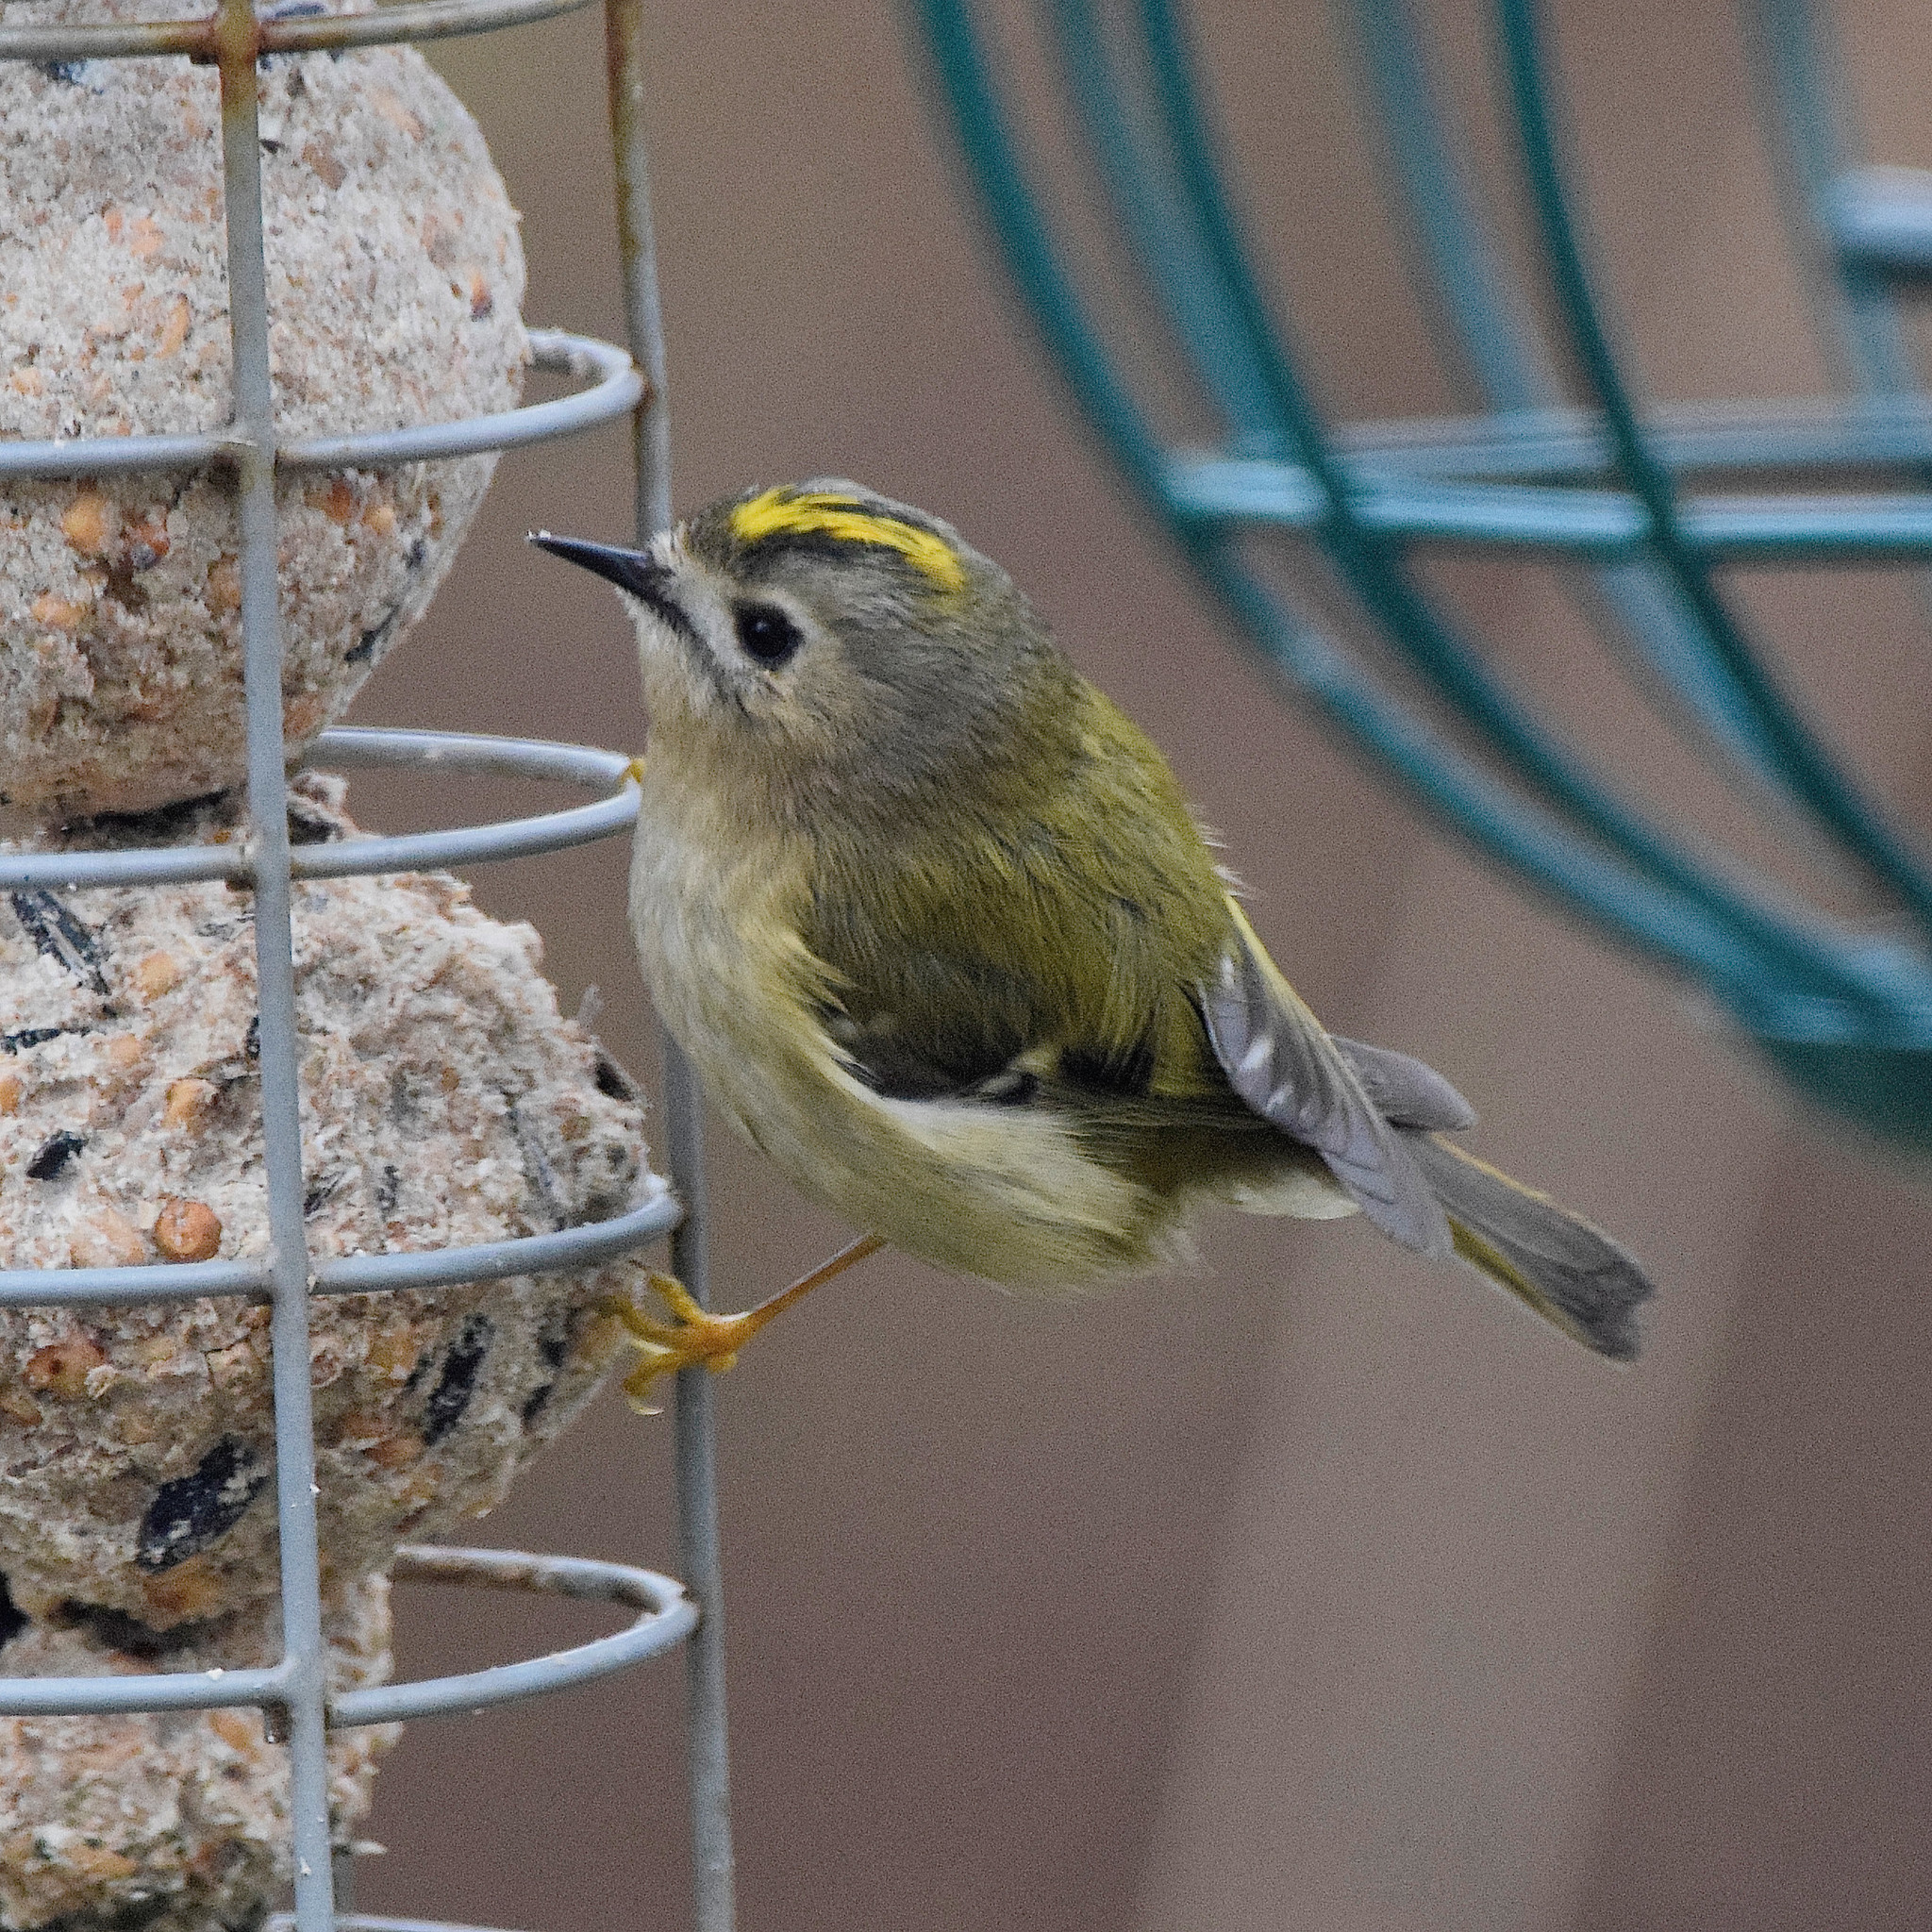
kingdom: Animalia
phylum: Chordata
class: Aves
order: Passeriformes
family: Regulidae
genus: Regulus
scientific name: Regulus regulus
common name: Goldcrest
